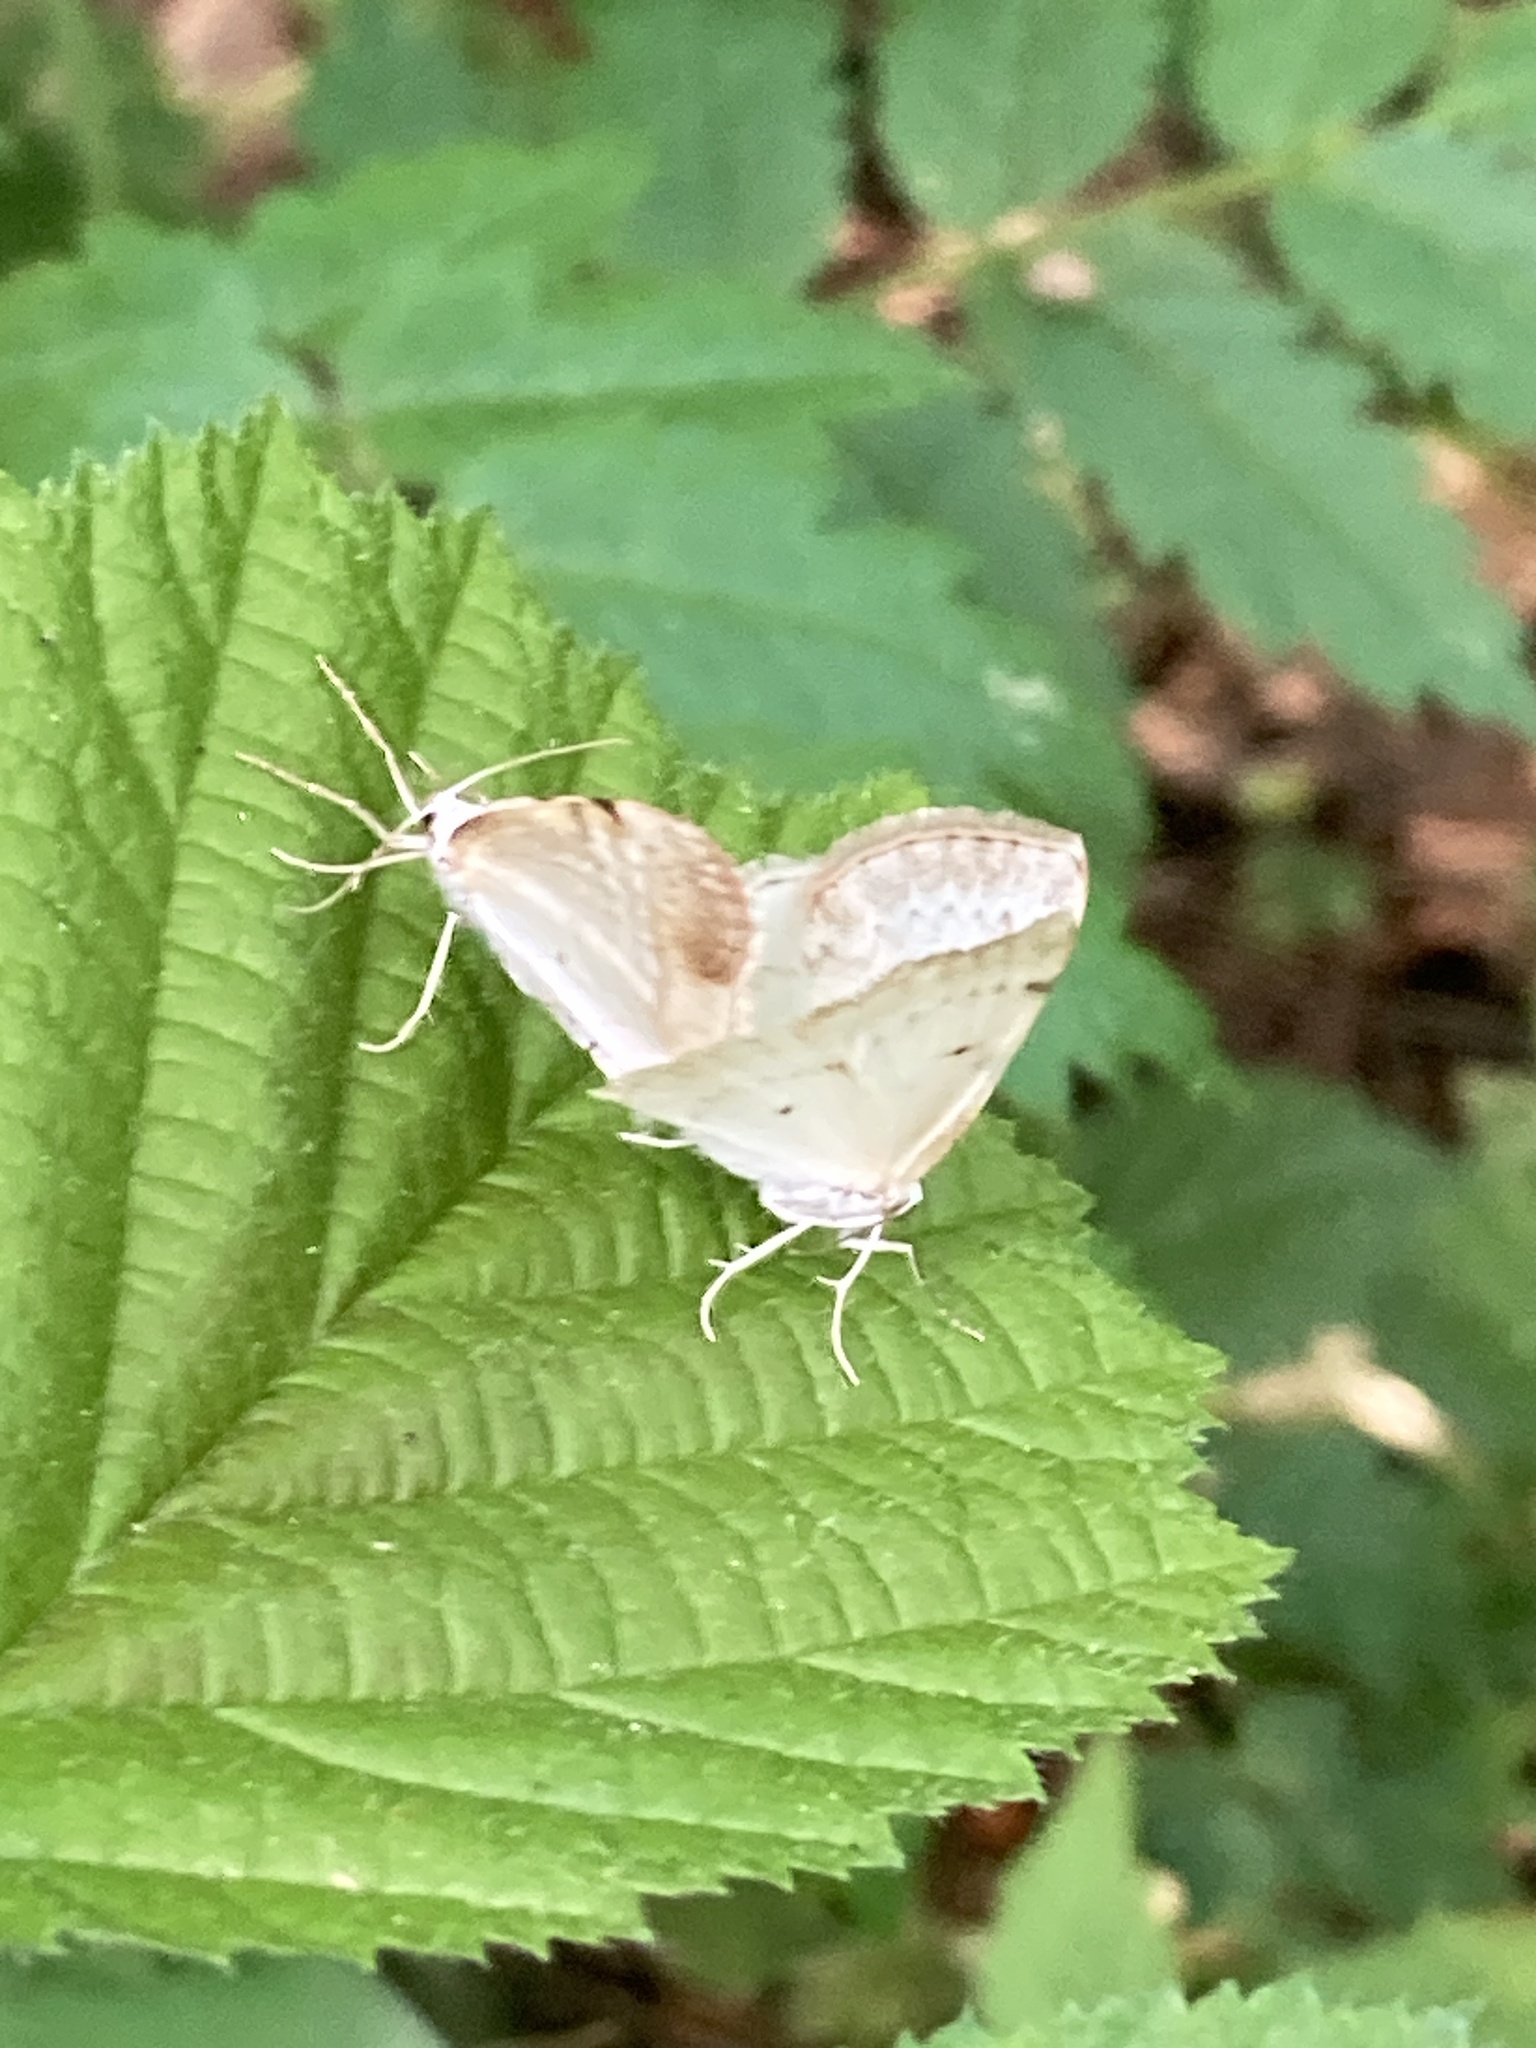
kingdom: Animalia
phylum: Arthropoda
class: Insecta
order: Lepidoptera
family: Geometridae
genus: Lomographa
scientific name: Lomographa bimaculata
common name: White-pinion spotted
